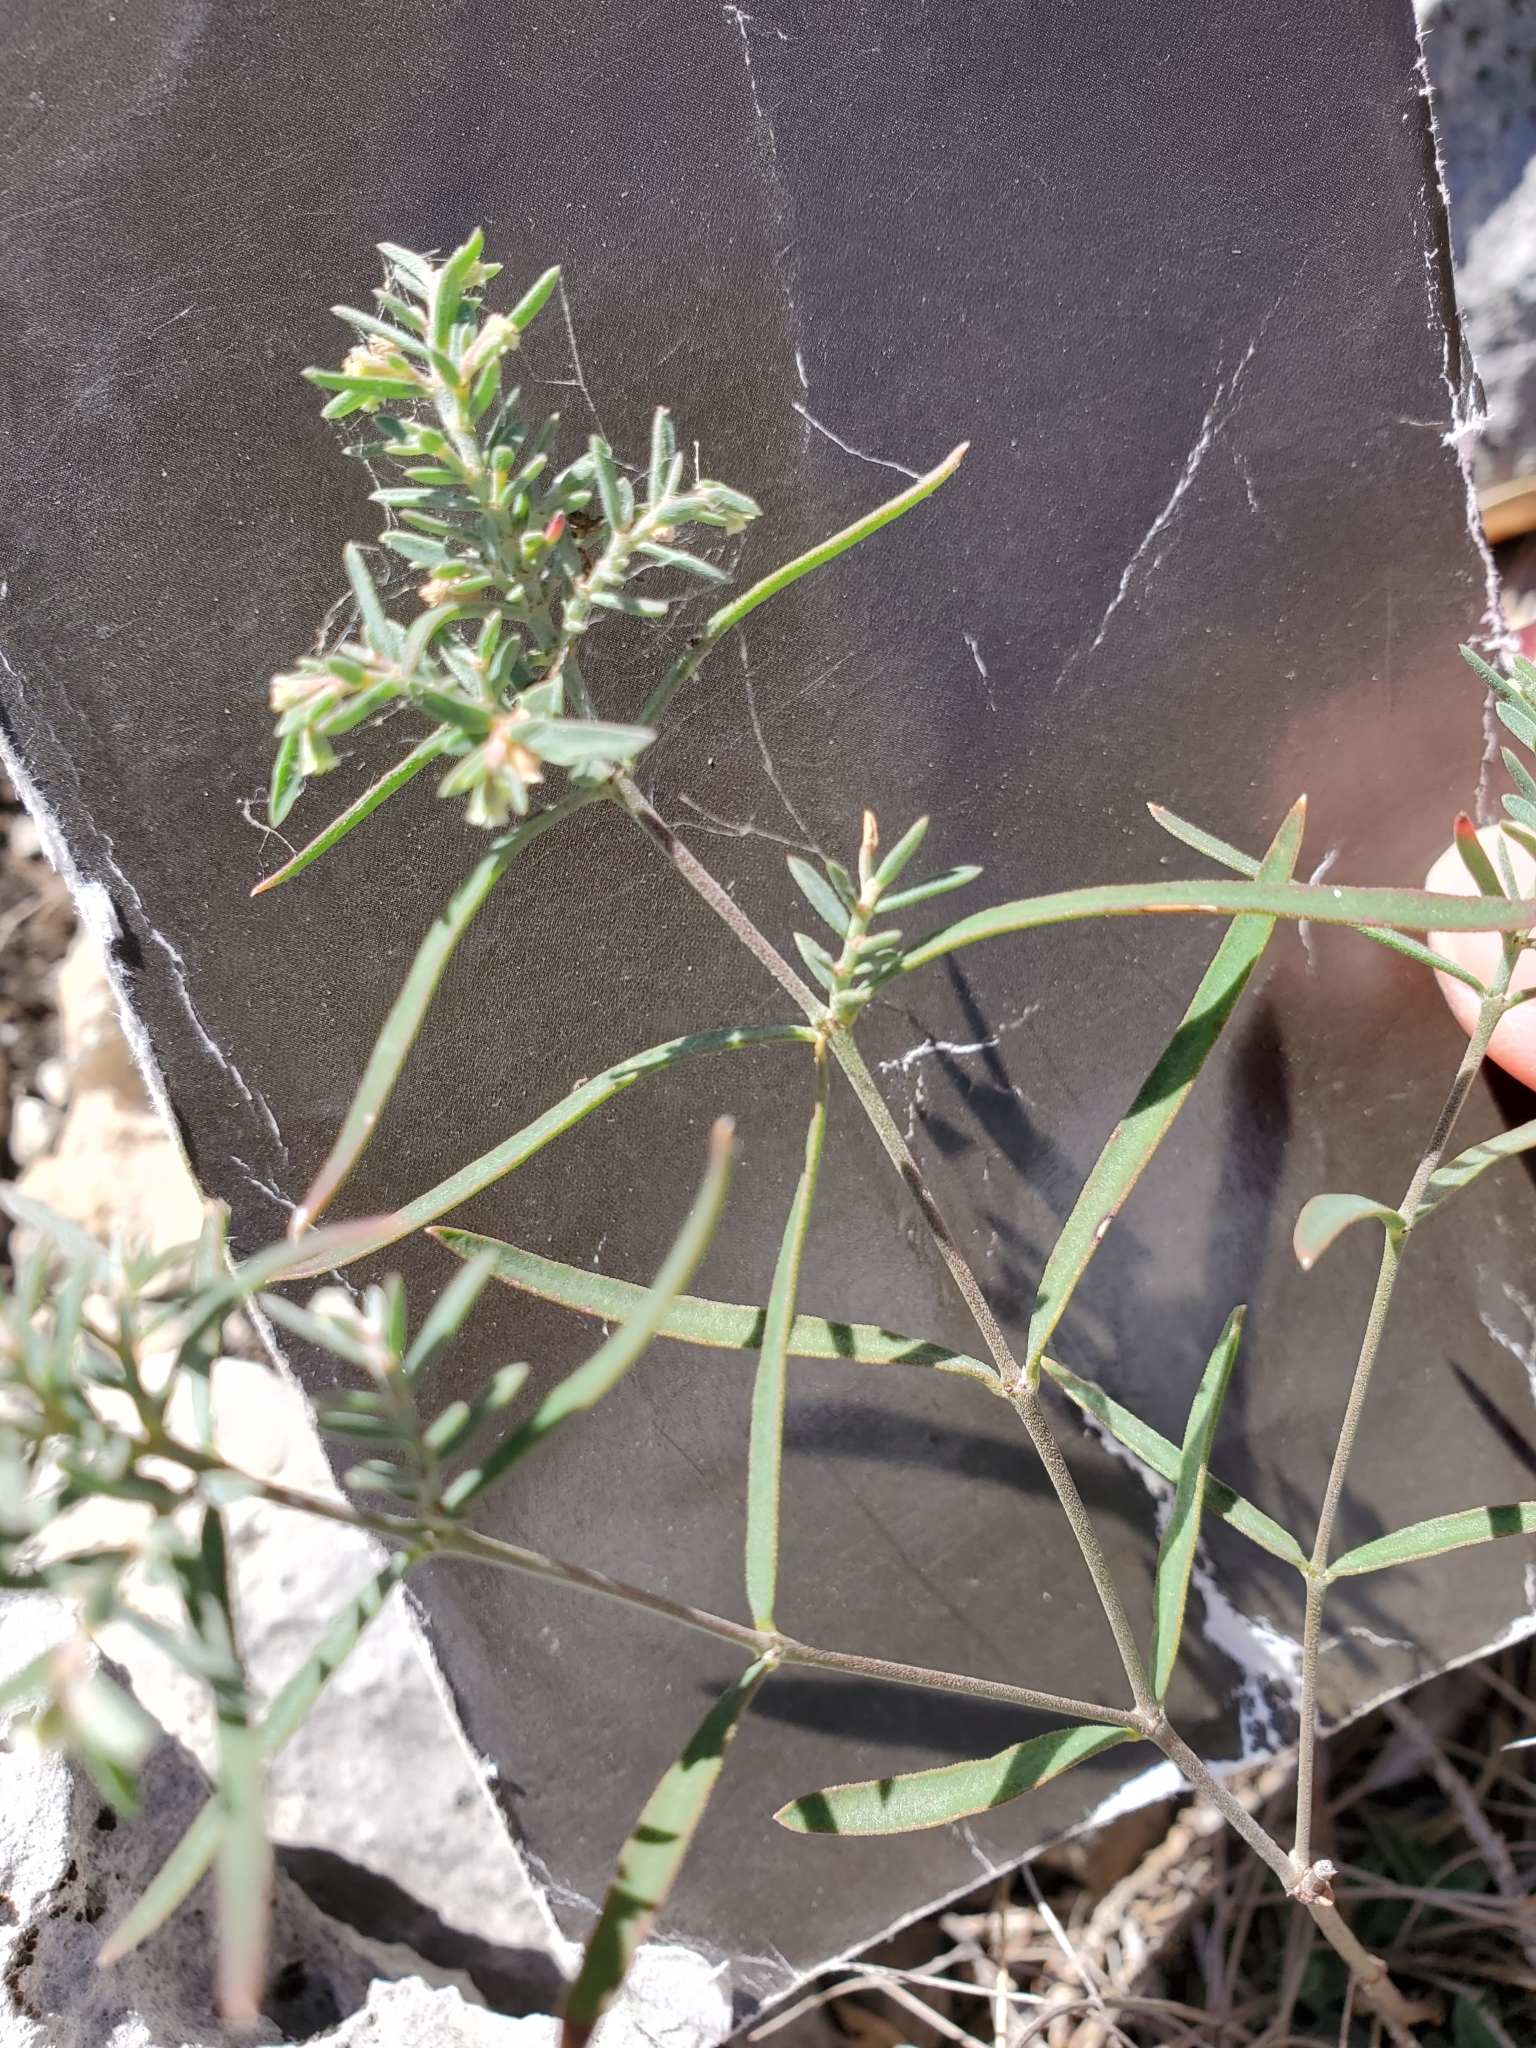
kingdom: Plantae
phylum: Tracheophyta
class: Magnoliopsida
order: Malpighiales
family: Euphorbiaceae
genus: Euphorbia
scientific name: Euphorbia angusta
